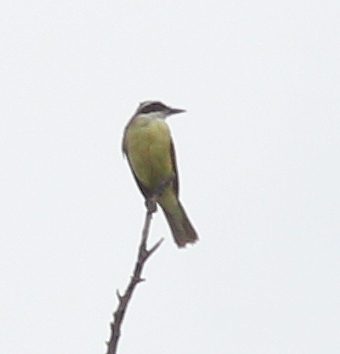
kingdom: Animalia
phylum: Chordata
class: Aves
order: Passeriformes
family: Tyrannidae
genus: Pitangus
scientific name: Pitangus sulphuratus
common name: Great kiskadee
